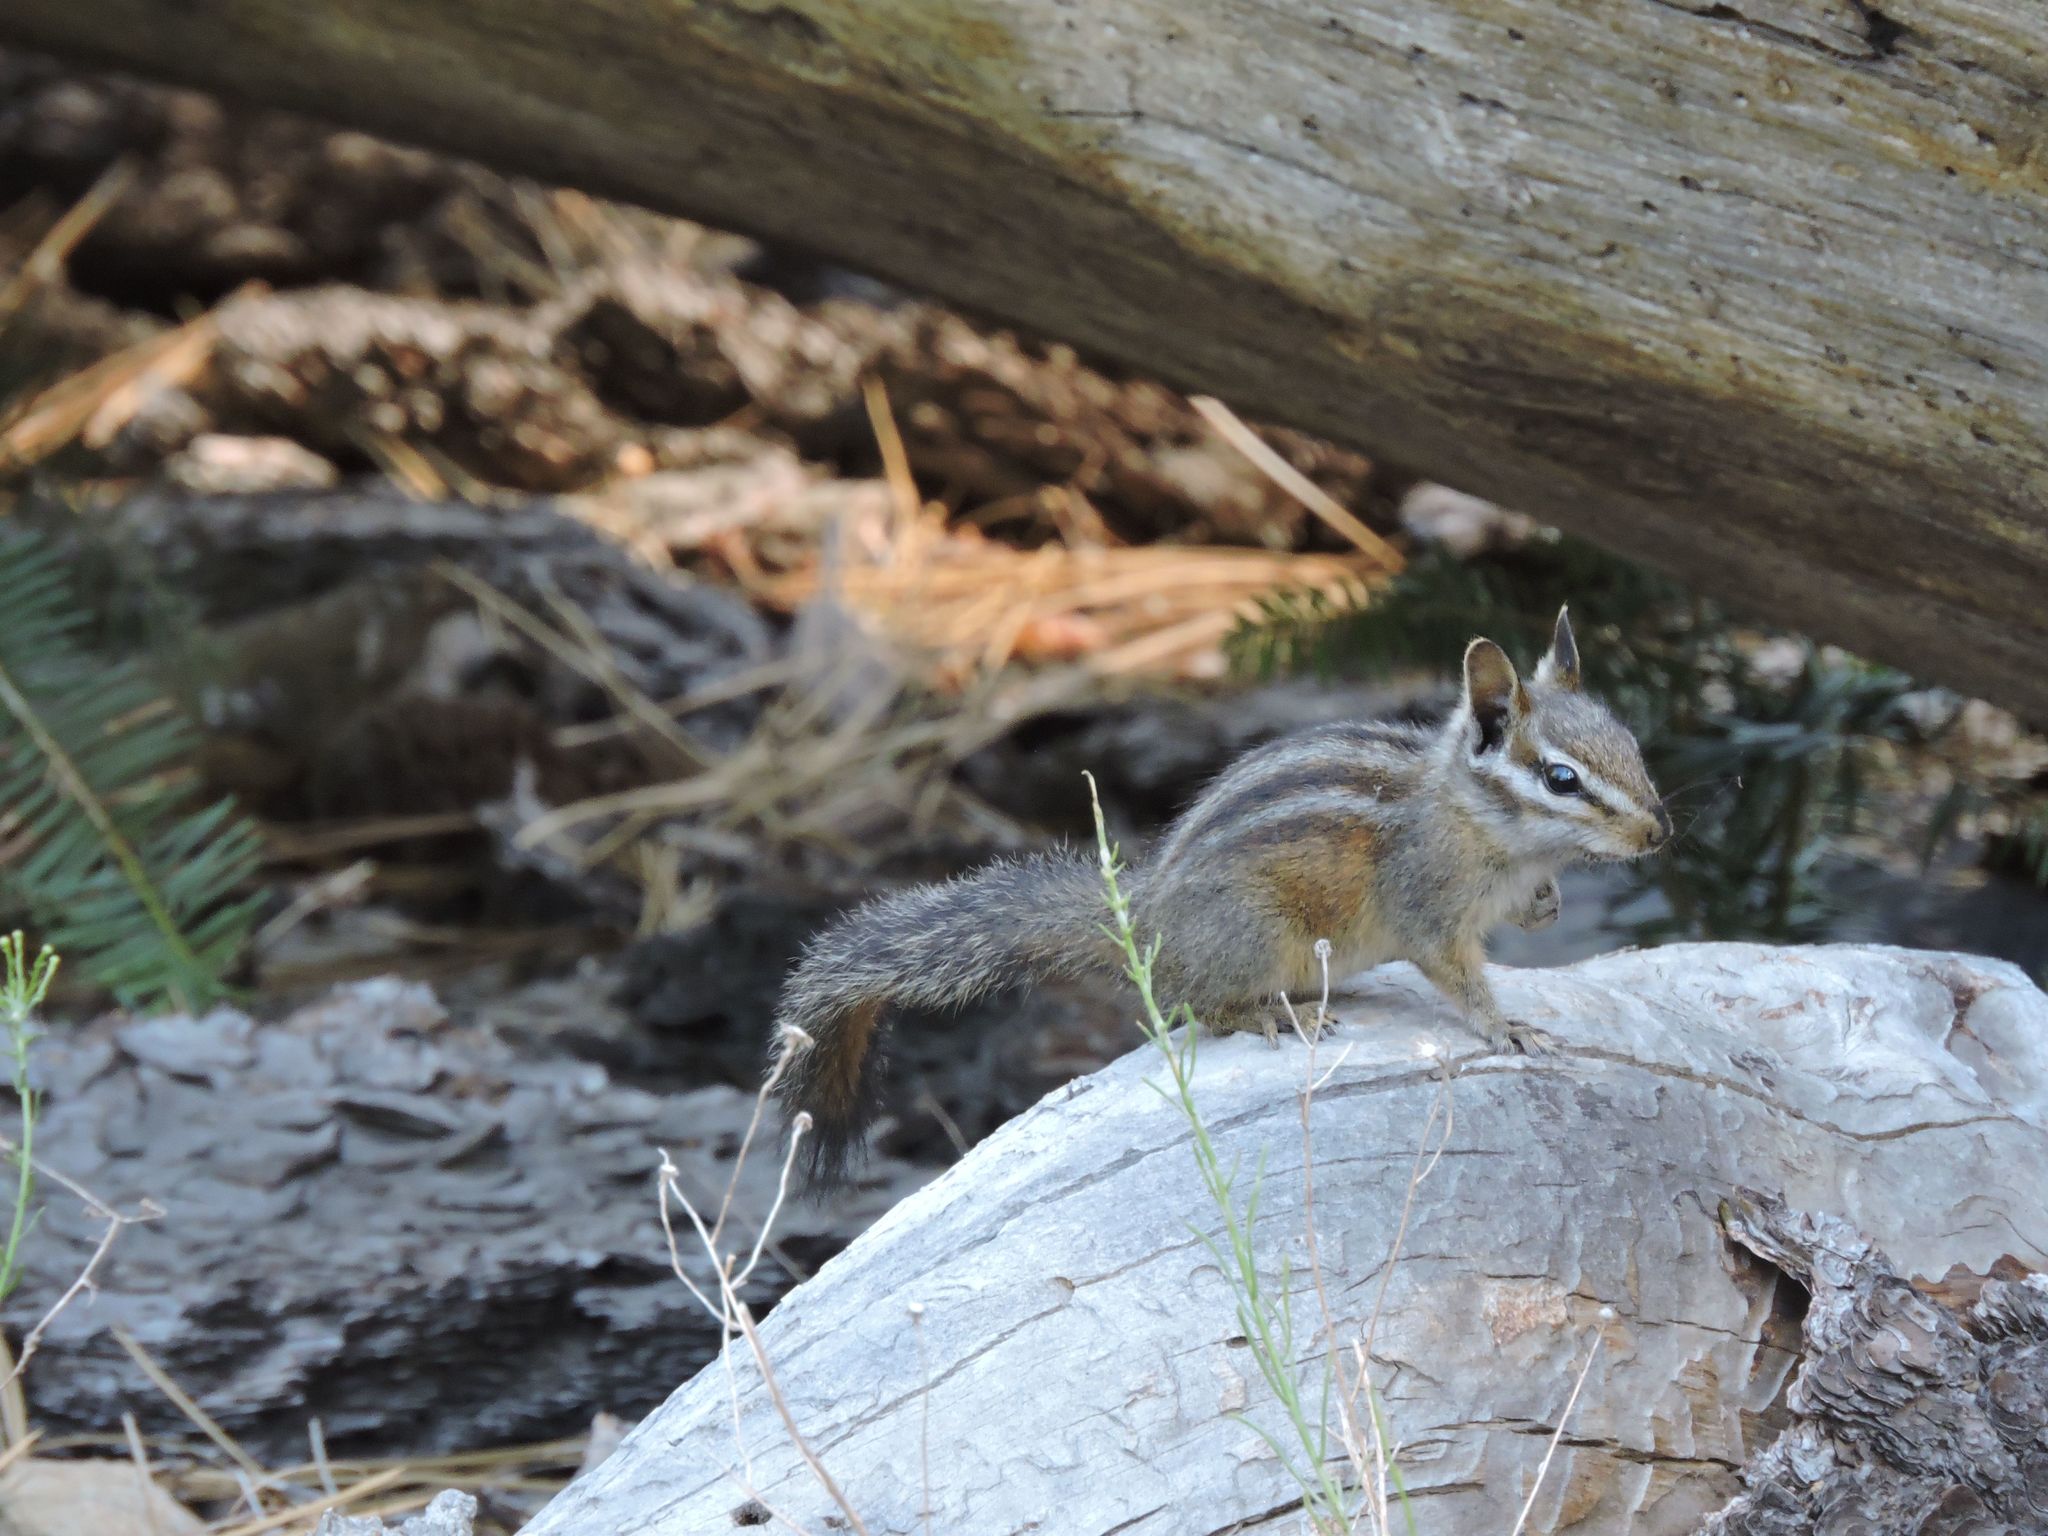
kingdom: Animalia
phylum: Chordata
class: Mammalia
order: Rodentia
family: Sciuridae
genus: Tamias
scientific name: Tamias merriami
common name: Merriam's chipmunk
